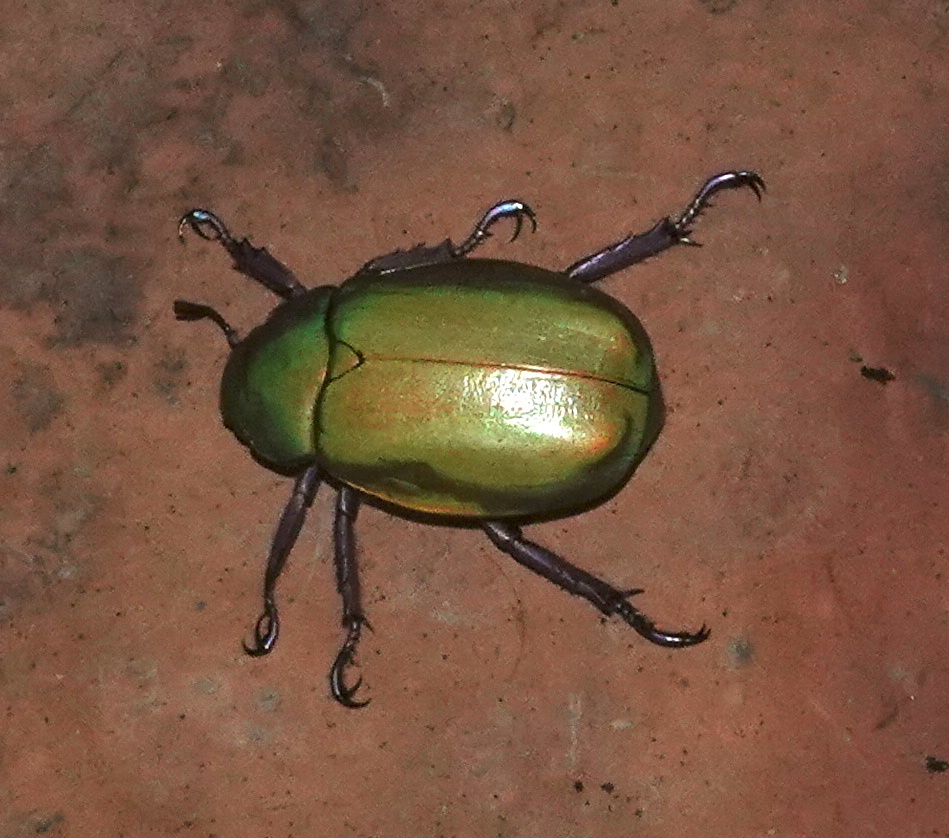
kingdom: Animalia
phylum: Arthropoda
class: Insecta
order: Coleoptera
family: Scarabaeidae
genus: Chrysina
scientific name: Chrysina beyeri
